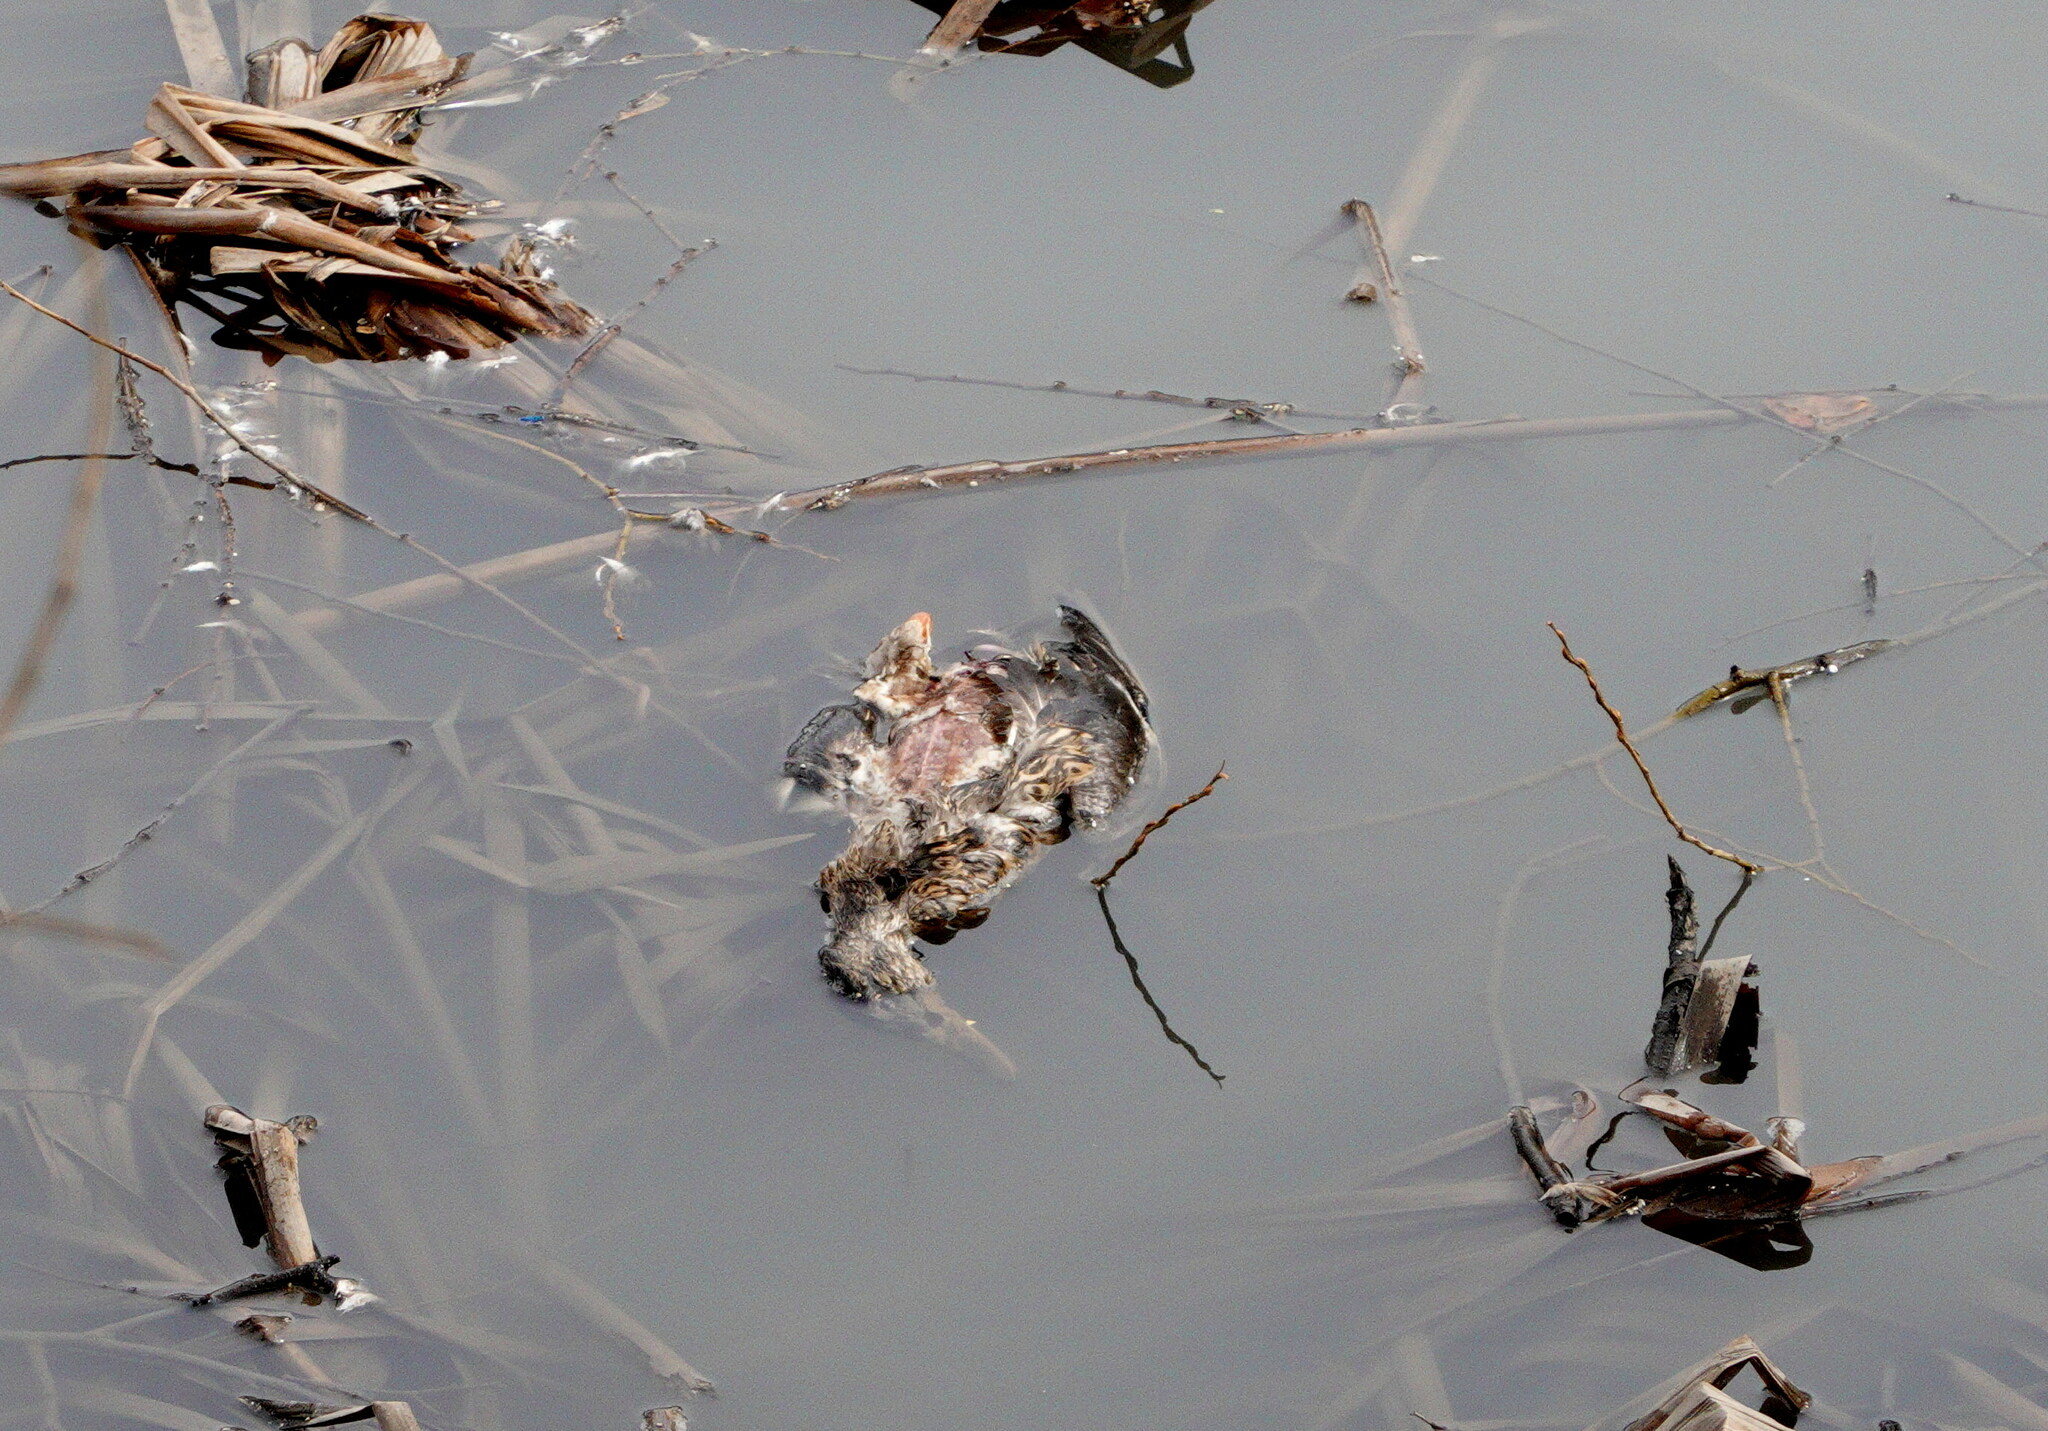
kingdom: Animalia
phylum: Chordata
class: Aves
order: Anseriformes
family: Anatidae
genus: Anas
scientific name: Anas platyrhynchos
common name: Mallard
